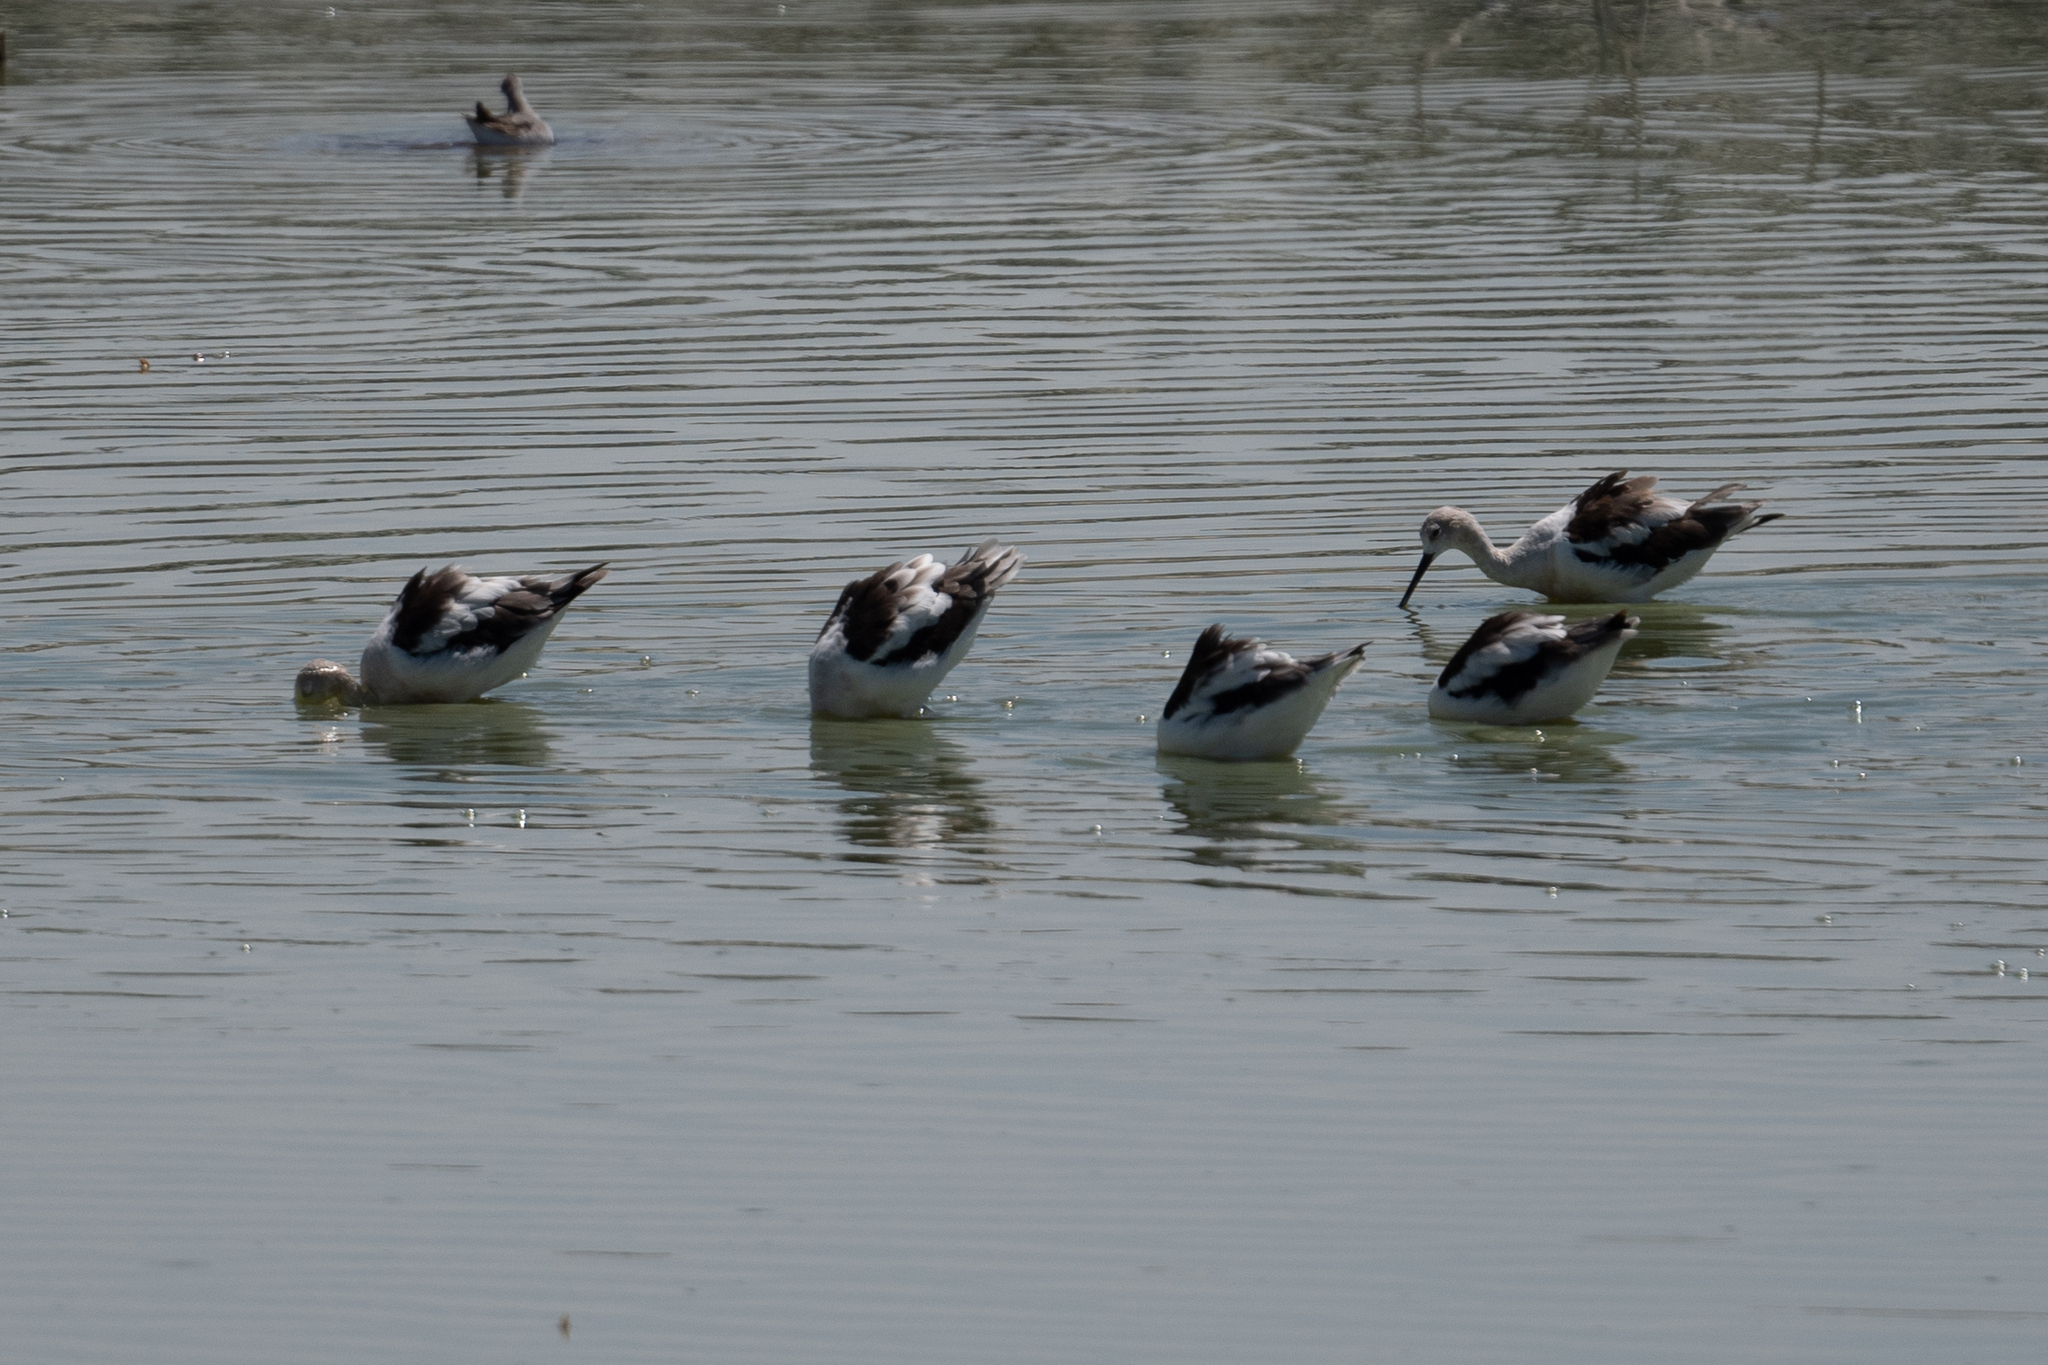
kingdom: Animalia
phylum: Chordata
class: Aves
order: Charadriiformes
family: Recurvirostridae
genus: Recurvirostra
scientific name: Recurvirostra americana
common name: American avocet
